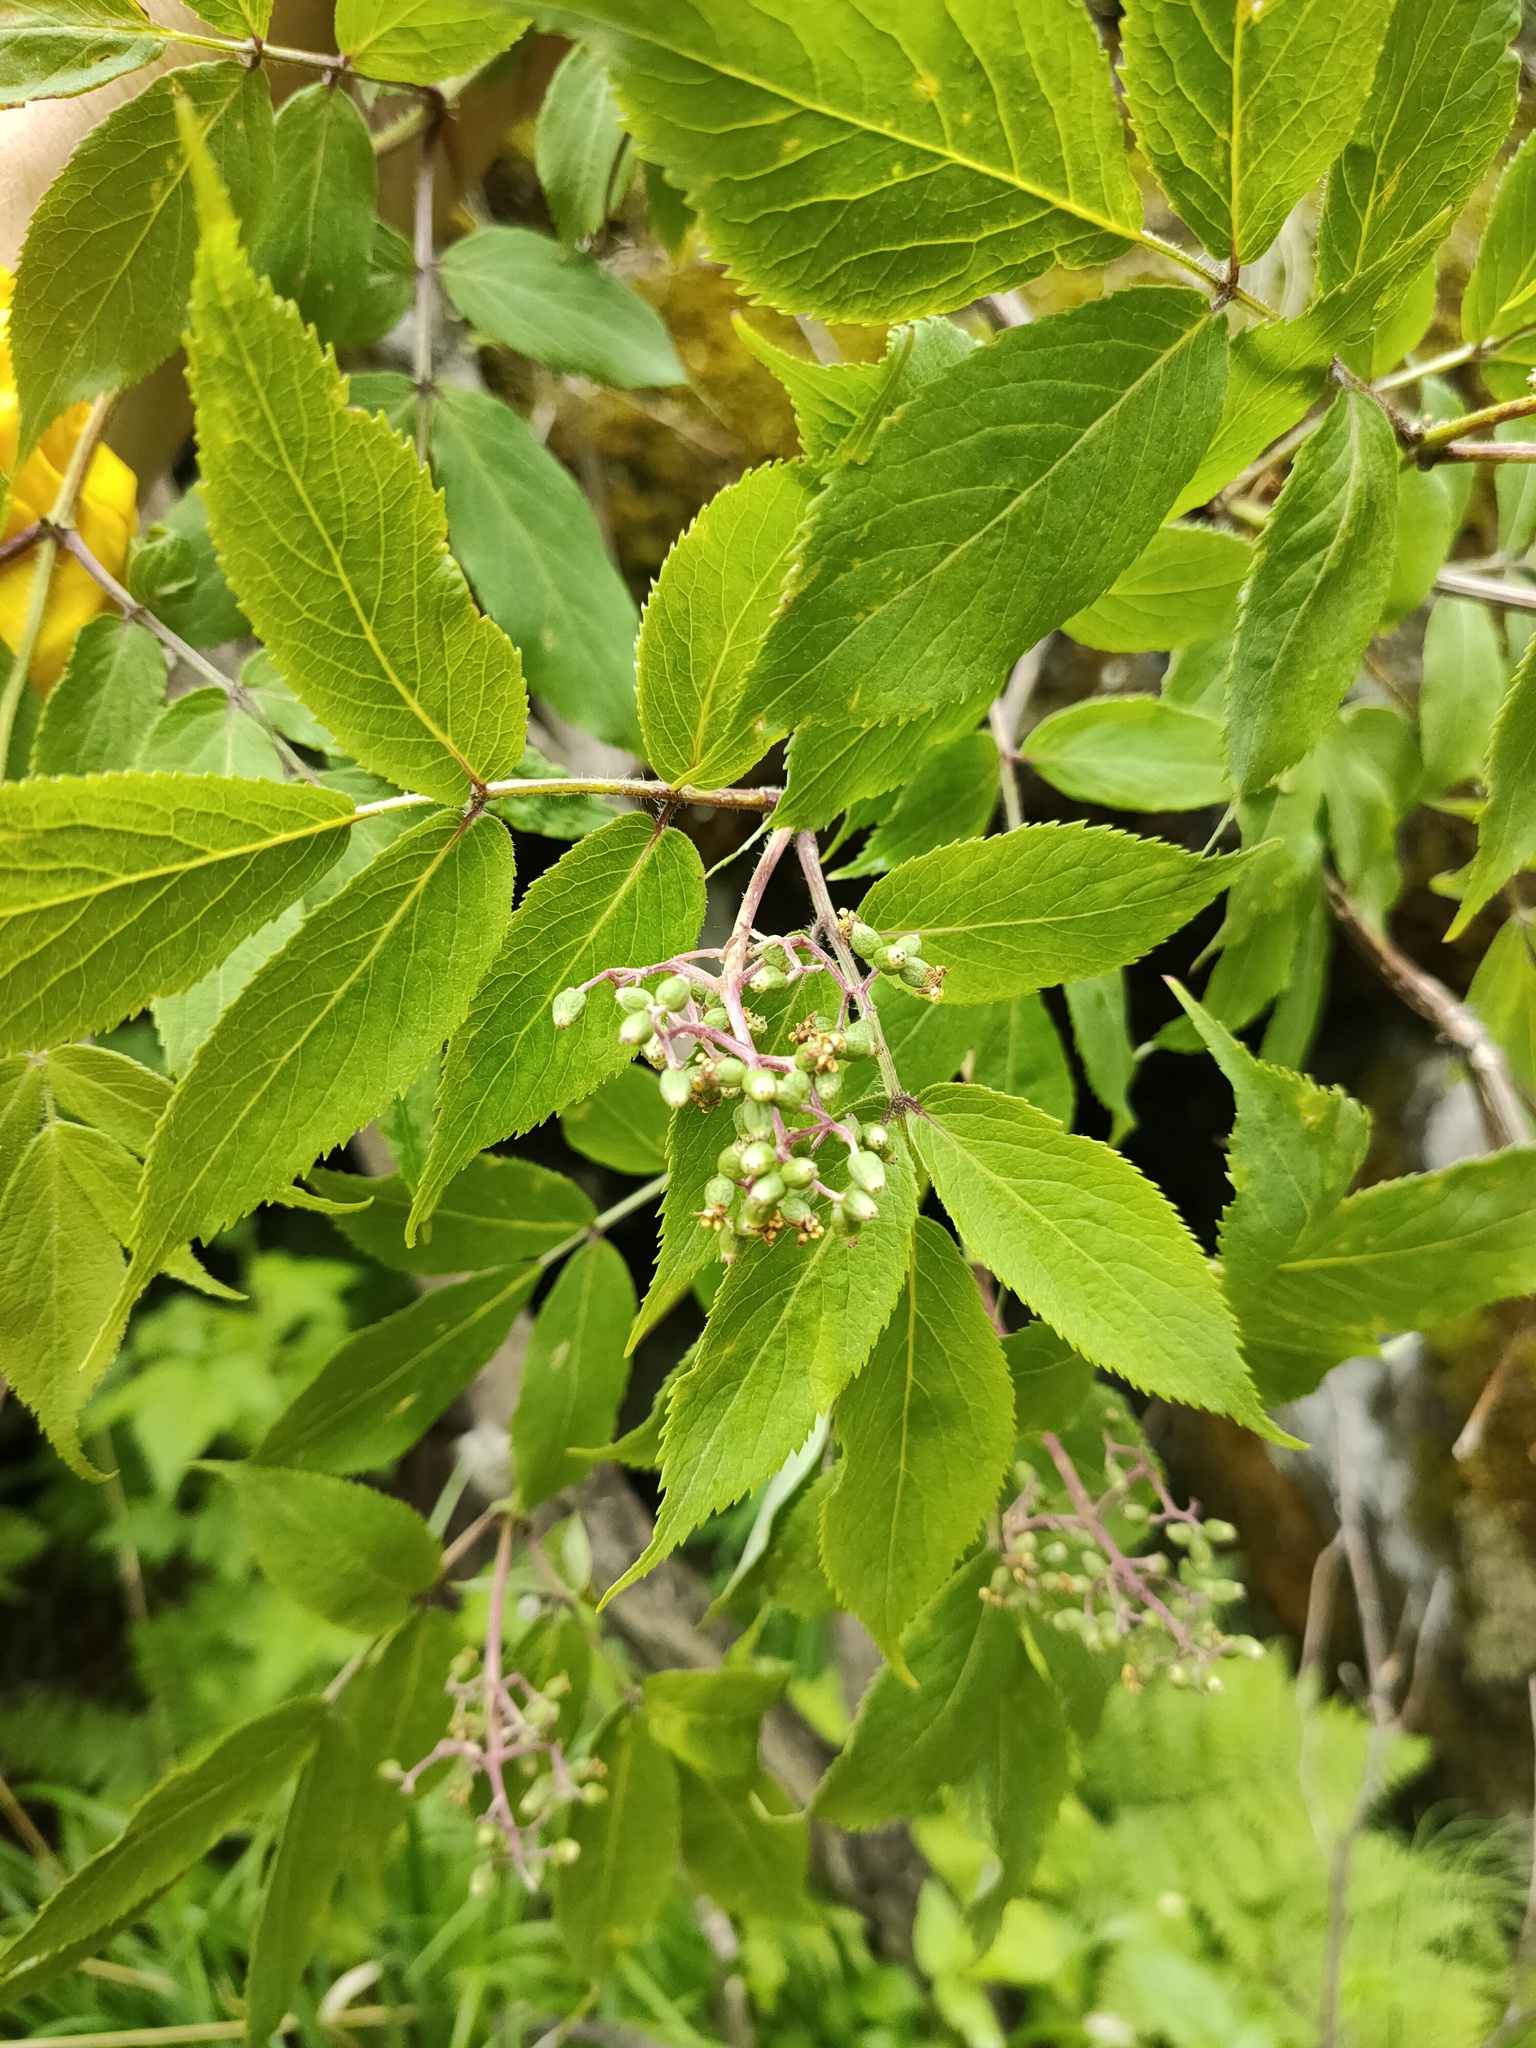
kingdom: Plantae
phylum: Tracheophyta
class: Magnoliopsida
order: Dipsacales
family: Viburnaceae
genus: Sambucus
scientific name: Sambucus sibirica
